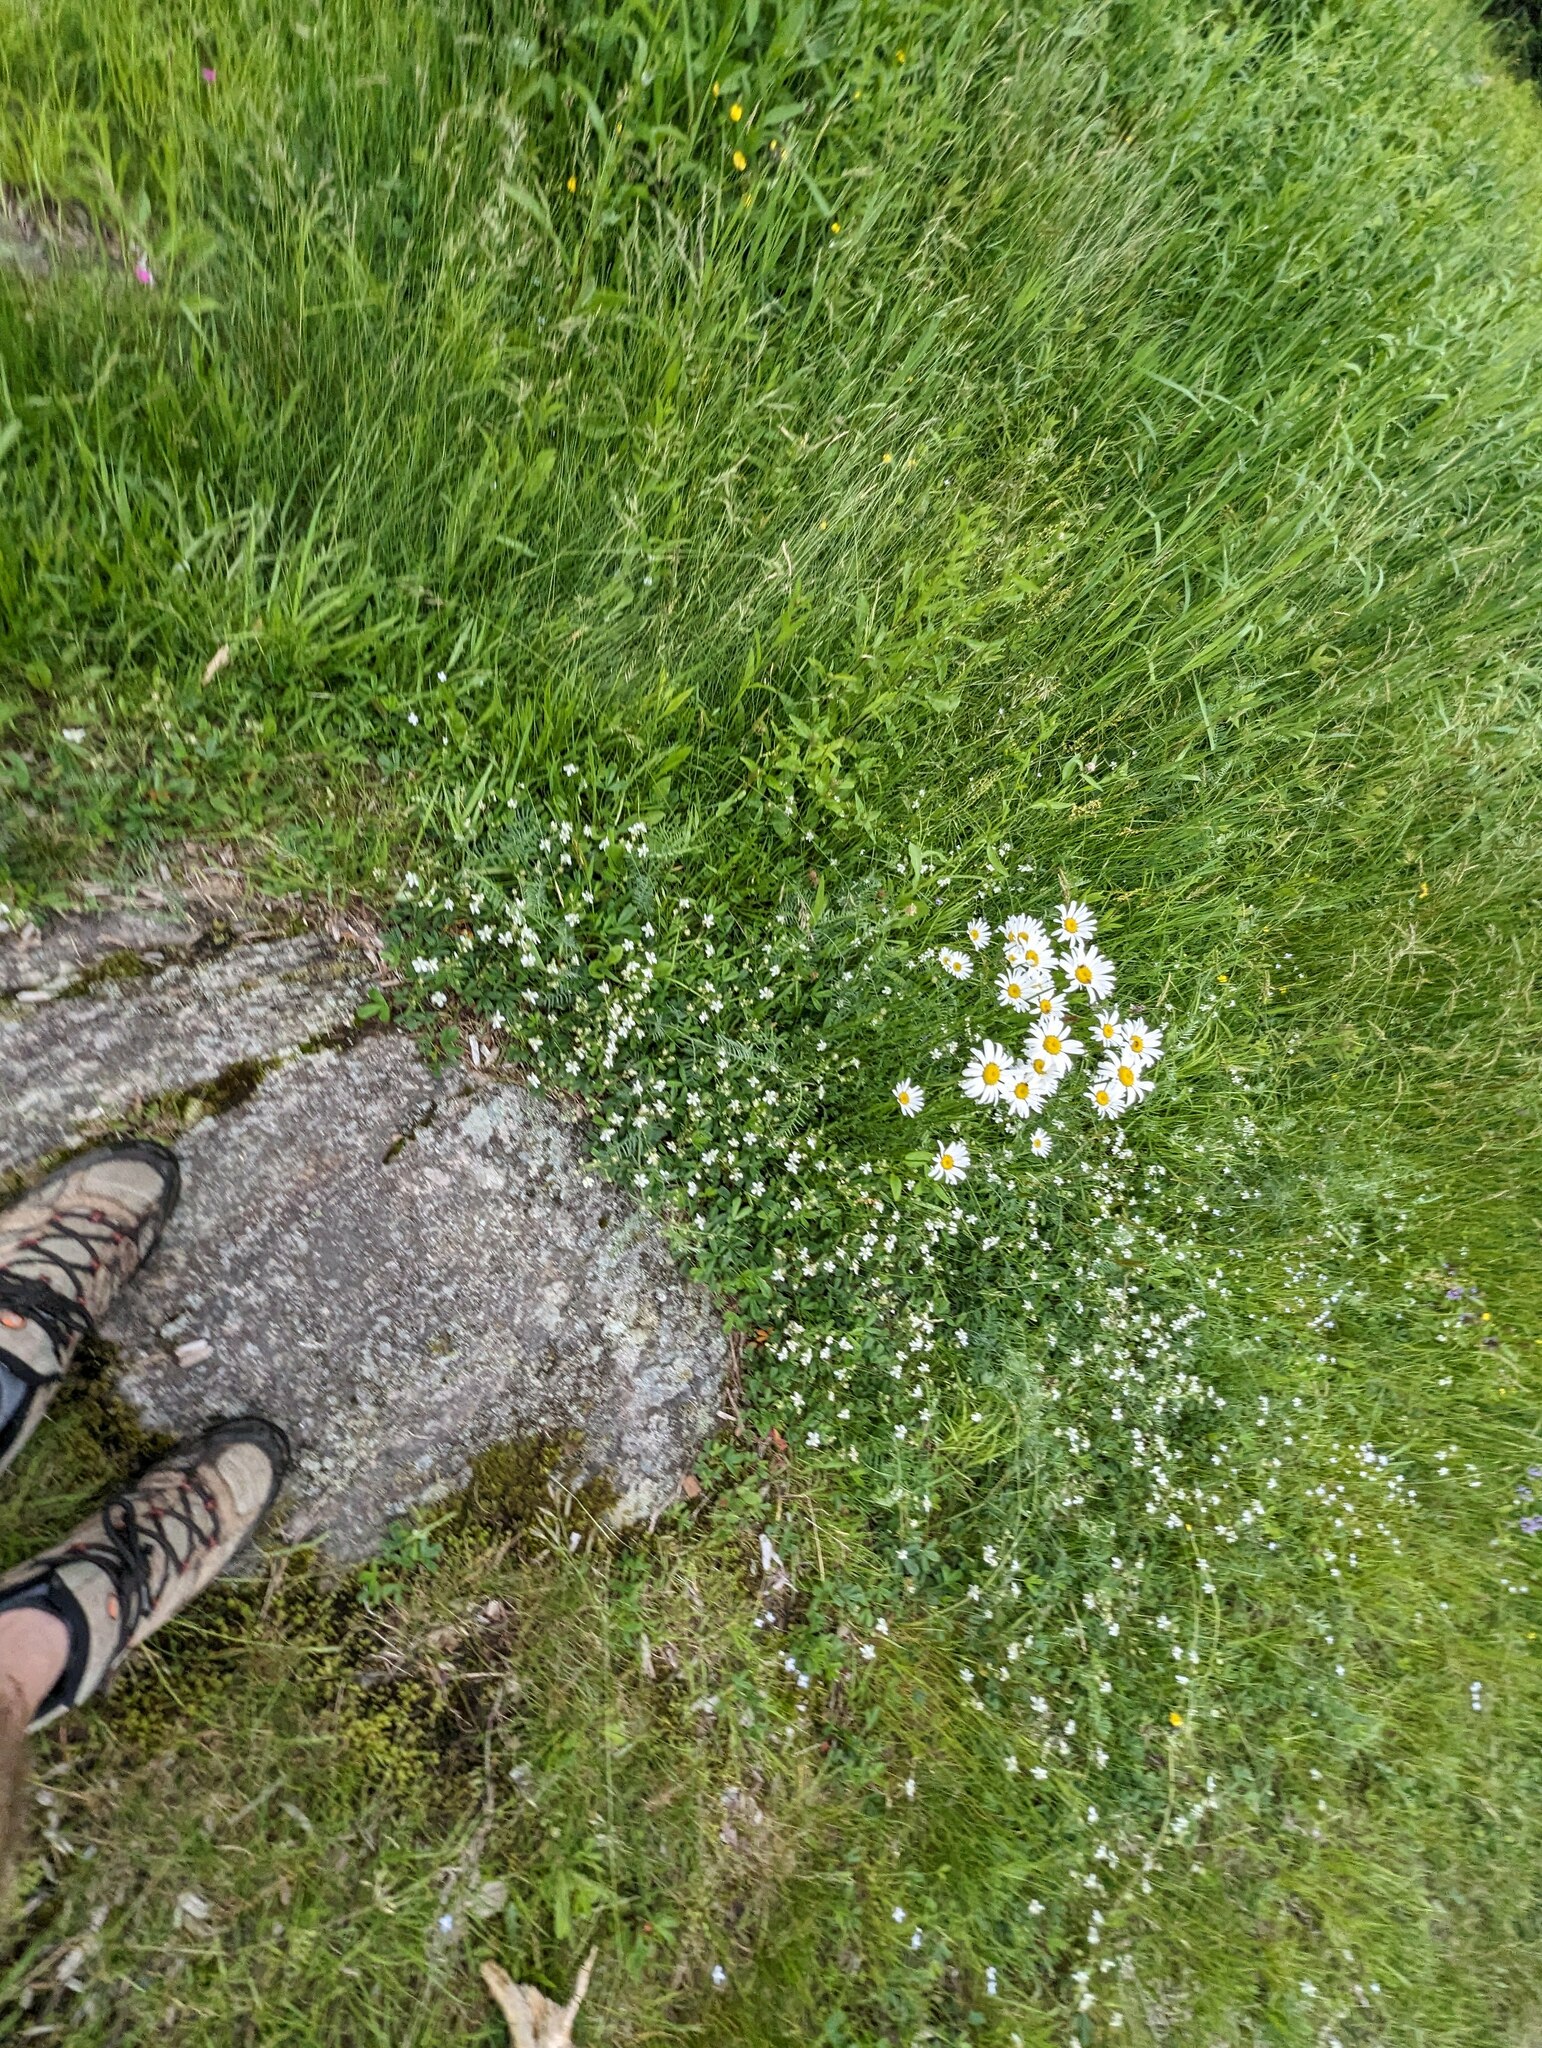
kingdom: Plantae
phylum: Tracheophyta
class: Magnoliopsida
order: Asterales
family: Asteraceae
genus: Leucanthemum
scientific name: Leucanthemum vulgare
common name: Oxeye daisy
